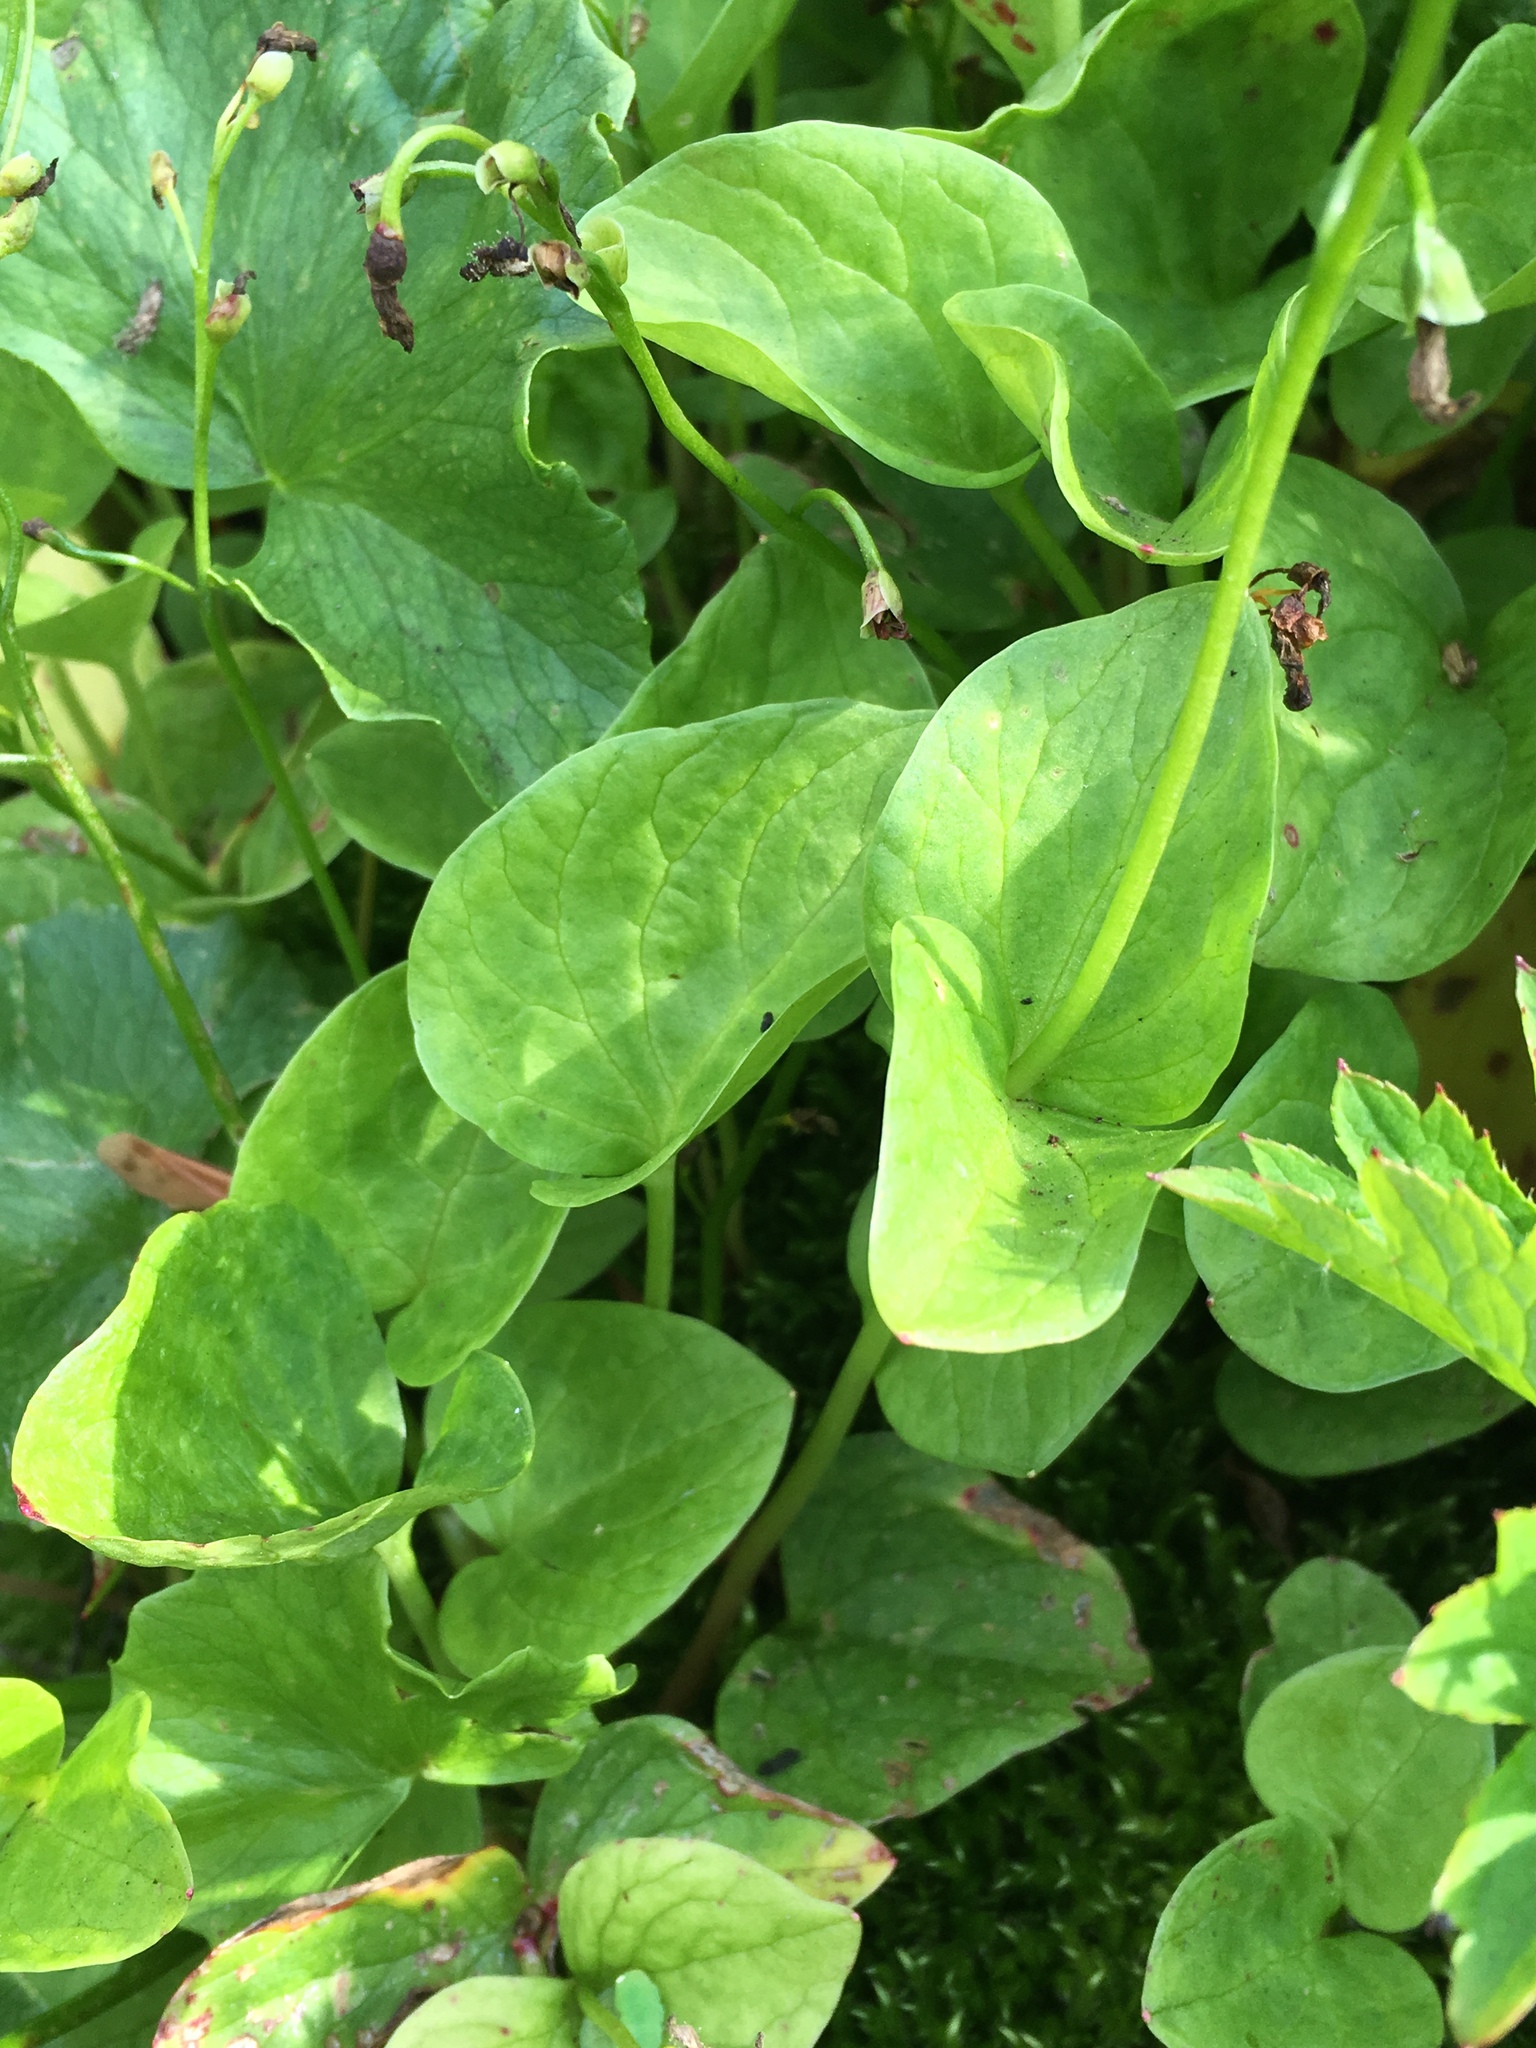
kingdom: Plantae
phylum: Tracheophyta
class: Magnoliopsida
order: Caryophyllales
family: Montiaceae
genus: Claytonia
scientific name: Claytonia cordifolia
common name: Broad-leaved spring beauty
